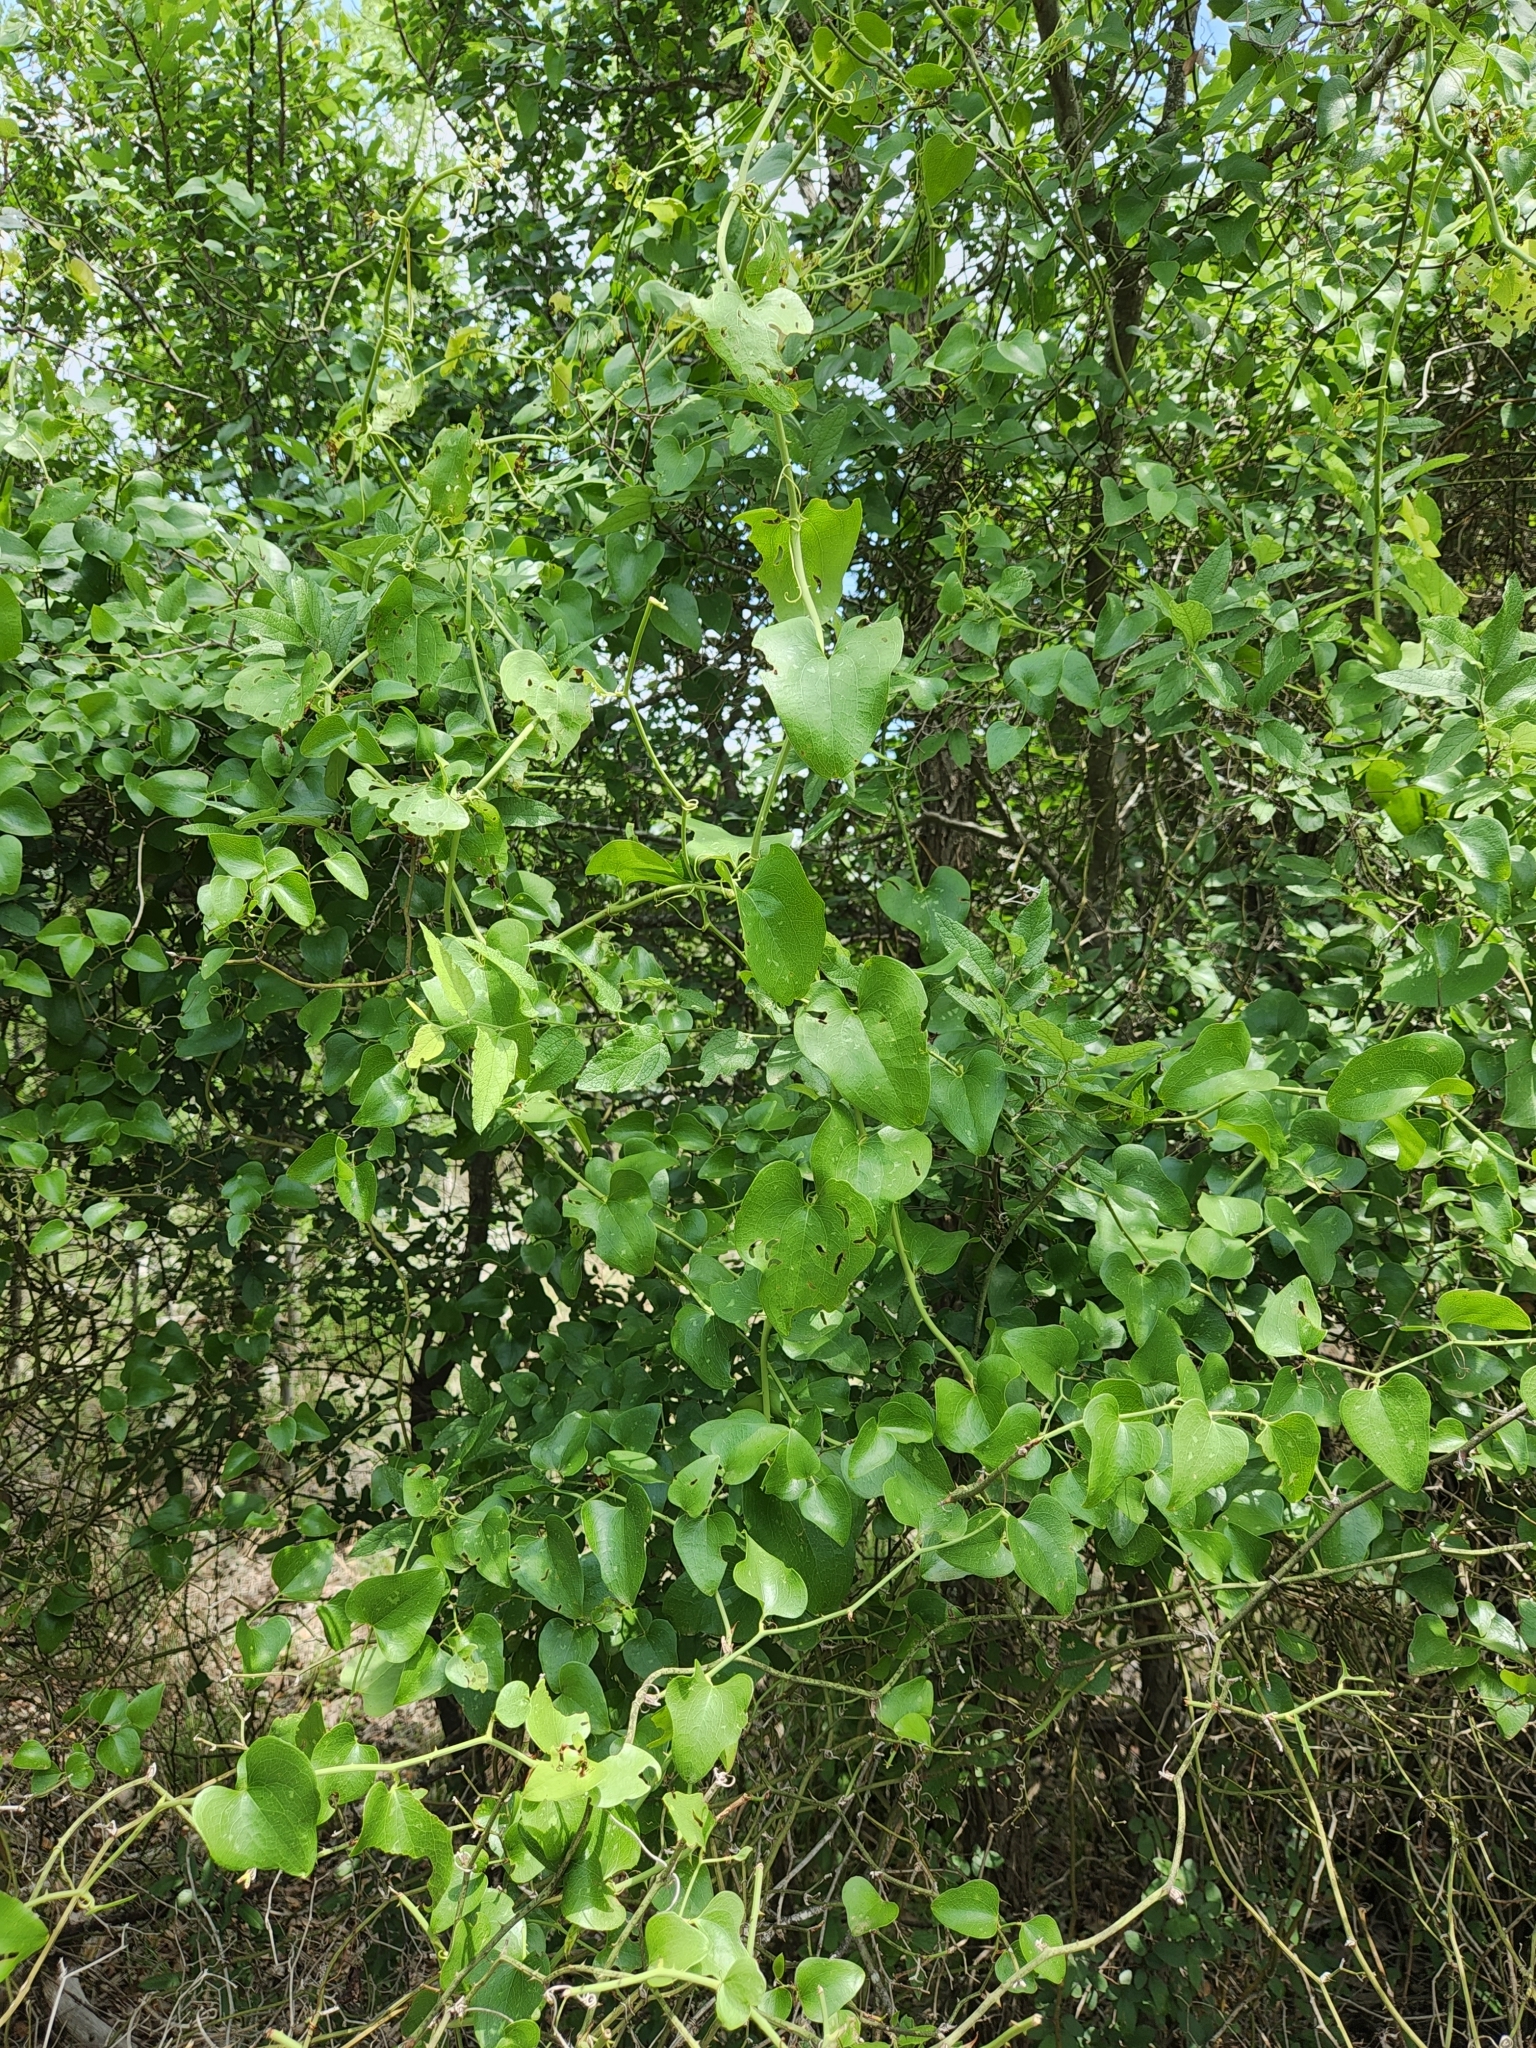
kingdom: Plantae
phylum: Tracheophyta
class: Liliopsida
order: Liliales
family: Smilacaceae
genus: Smilax
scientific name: Smilax bona-nox
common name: Catbrier
